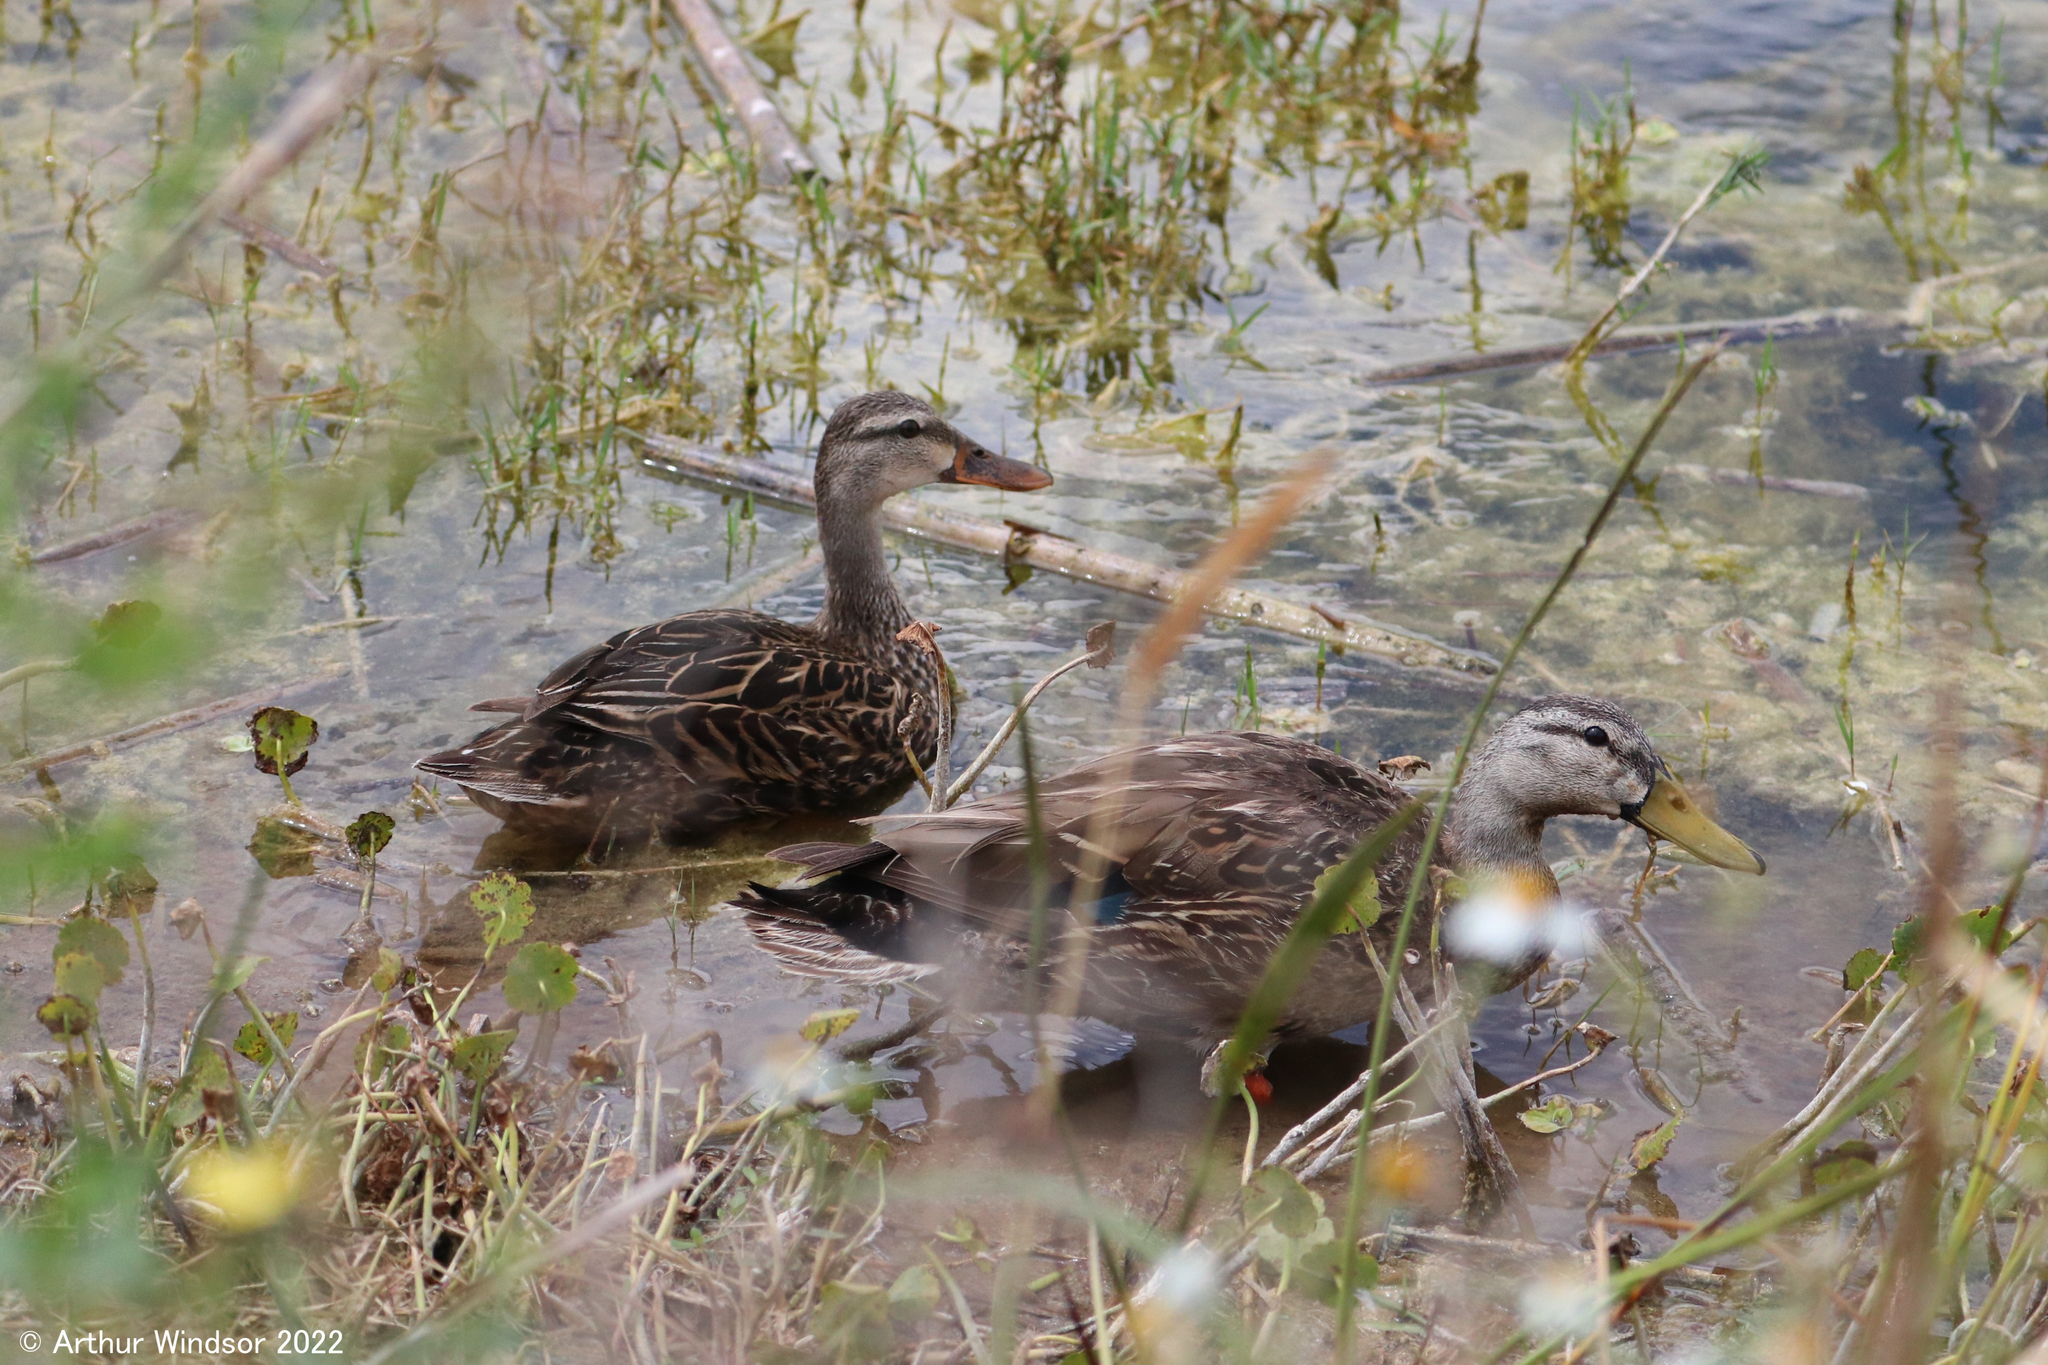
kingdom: Animalia
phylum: Chordata
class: Aves
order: Anseriformes
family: Anatidae
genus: Anas
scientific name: Anas fulvigula
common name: Mottled duck
